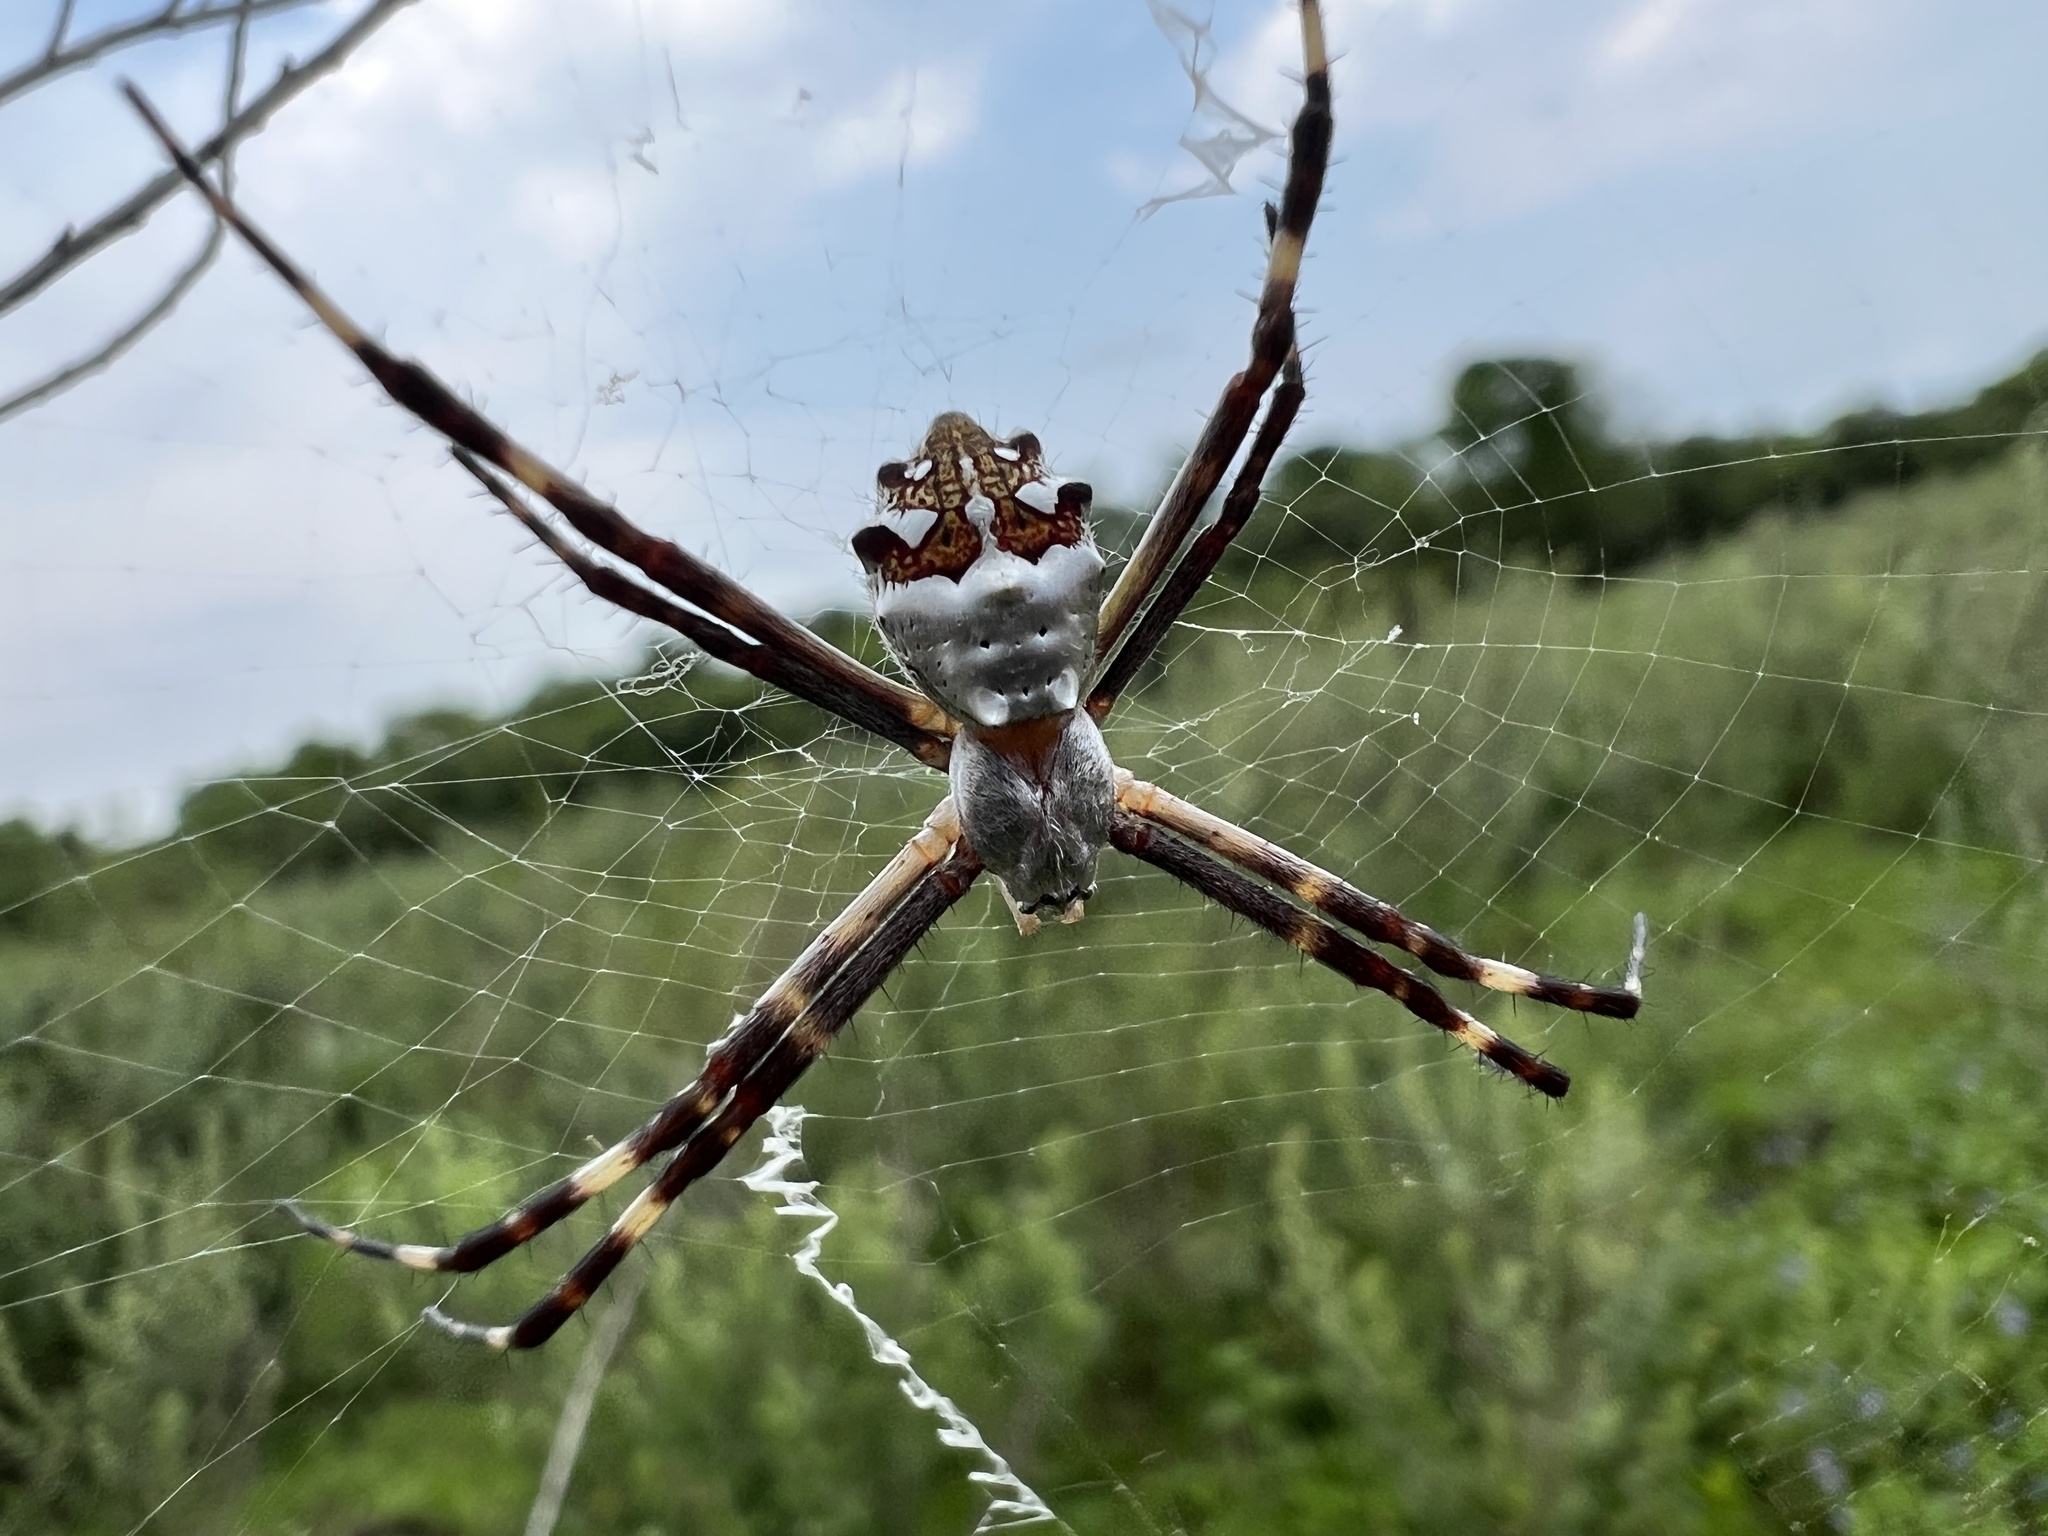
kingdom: Animalia
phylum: Arthropoda
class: Arachnida
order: Araneae
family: Araneidae
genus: Argiope
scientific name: Argiope argentata
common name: Orb weavers
